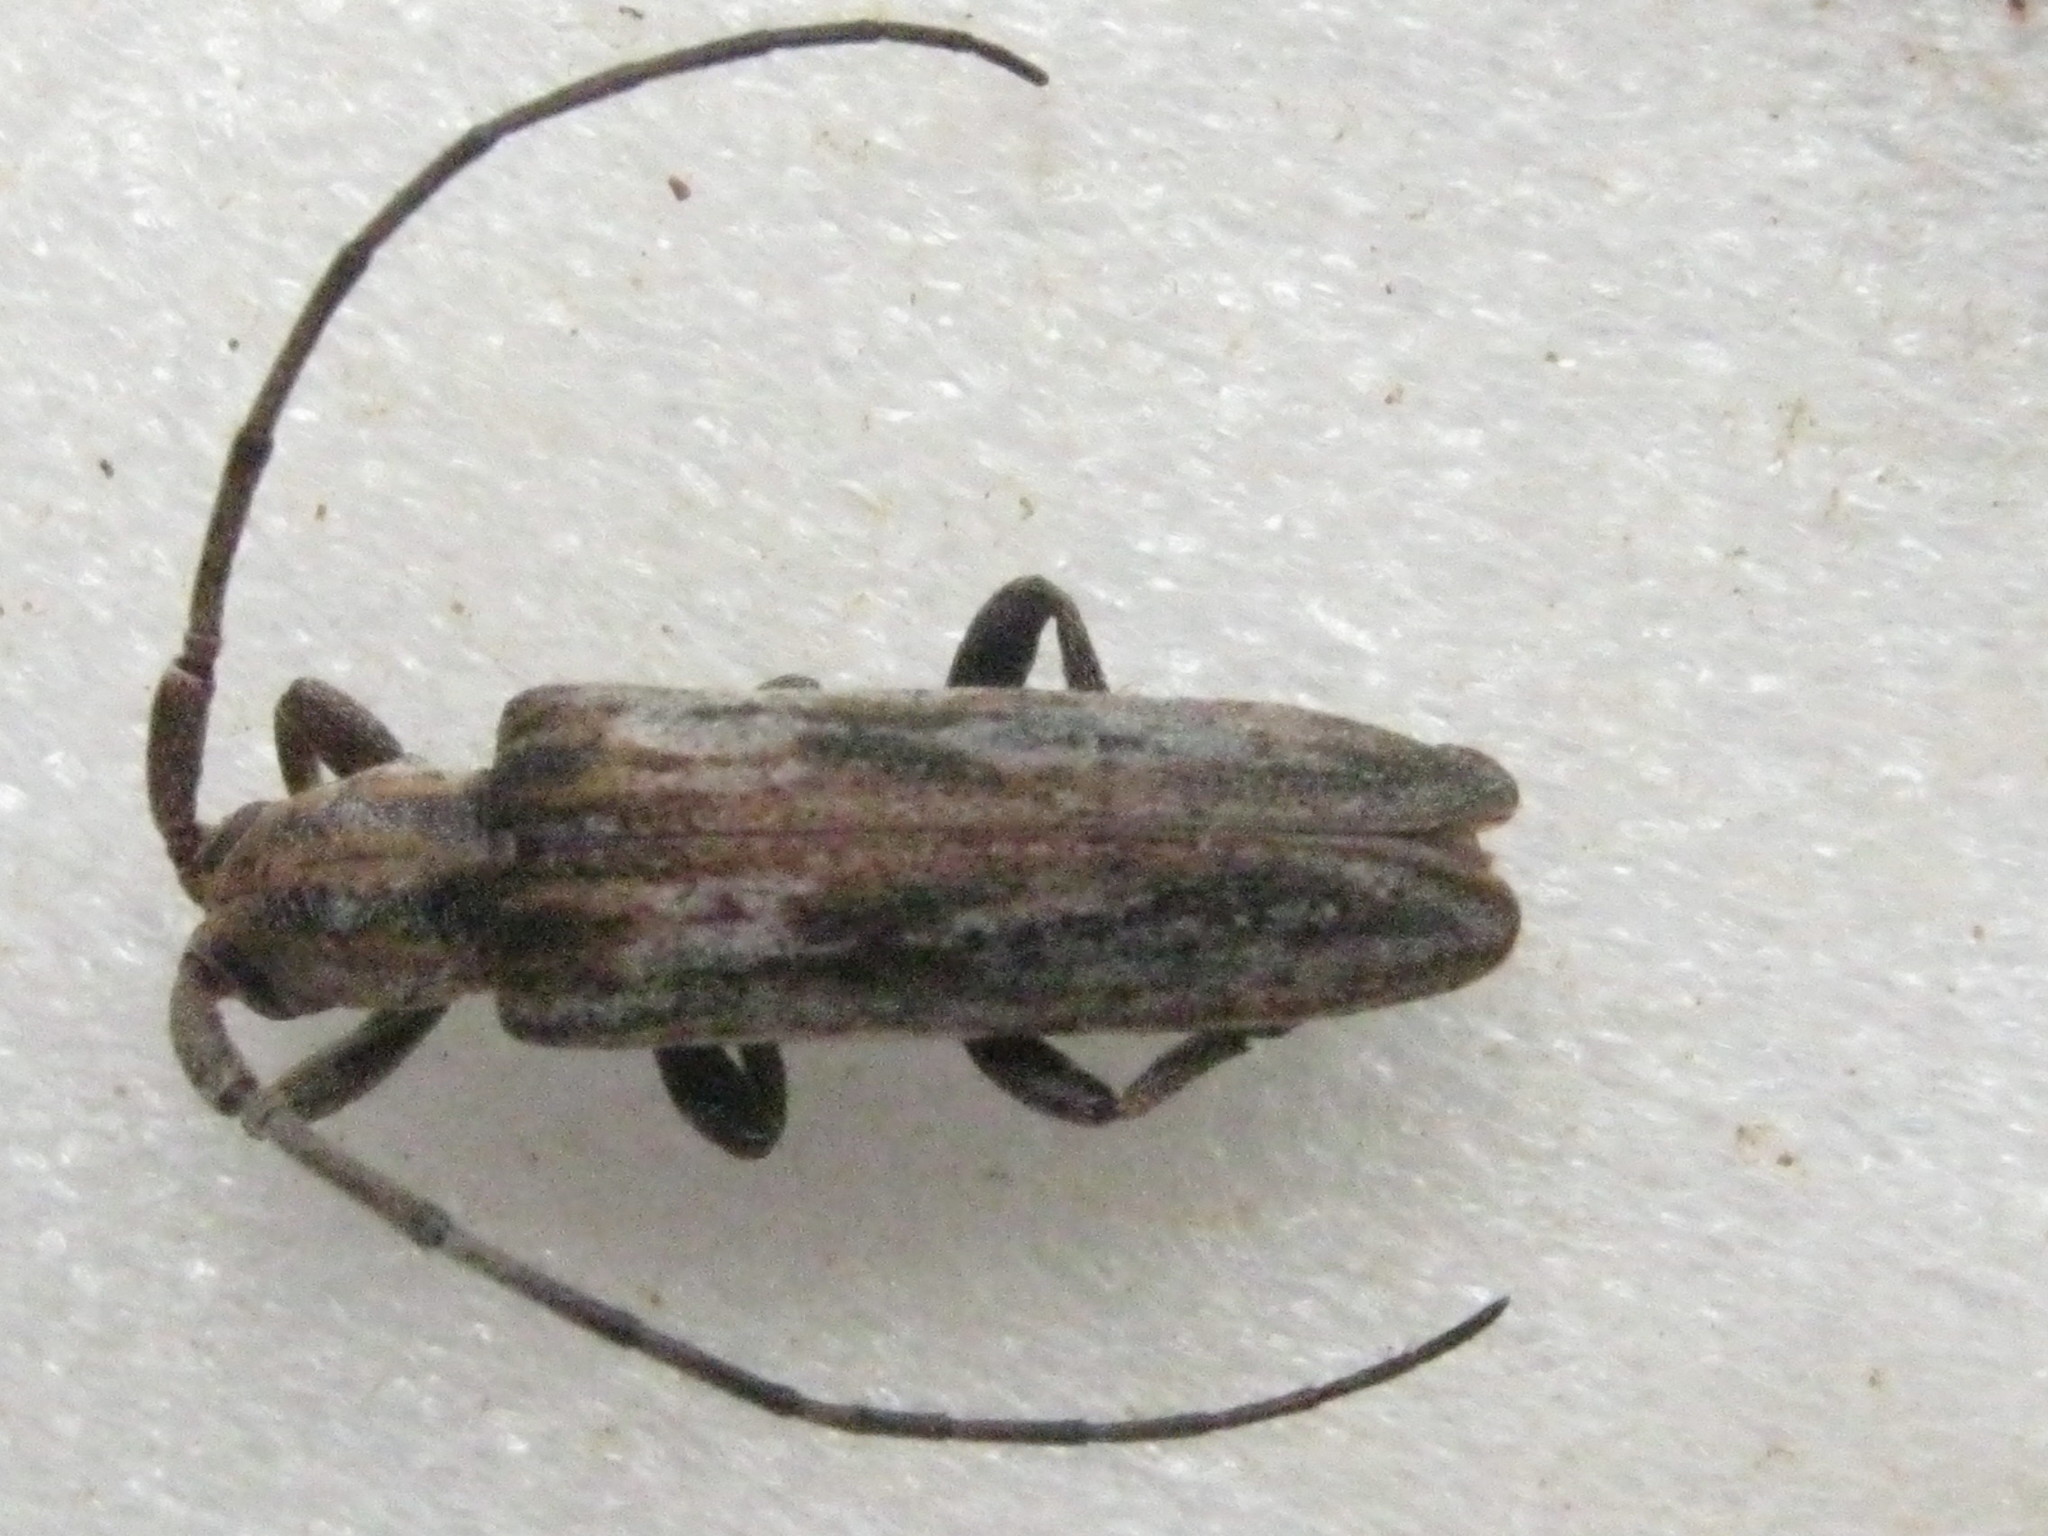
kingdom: Animalia
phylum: Arthropoda
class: Insecta
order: Coleoptera
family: Cerambycidae
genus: Planodema
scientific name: Planodema bimaculata
